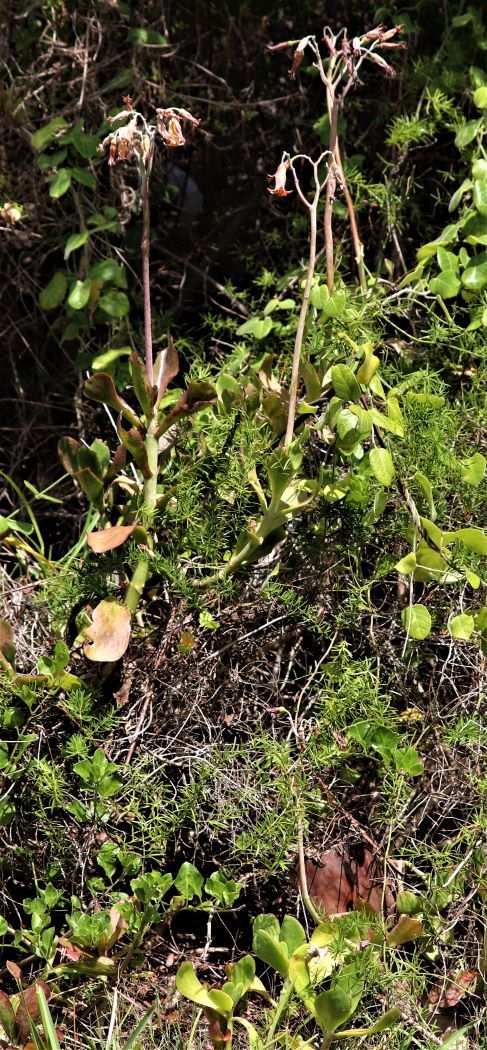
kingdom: Plantae
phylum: Tracheophyta
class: Magnoliopsida
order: Saxifragales
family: Crassulaceae
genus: Cotyledon
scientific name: Cotyledon orbiculata
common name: Pig's ear
